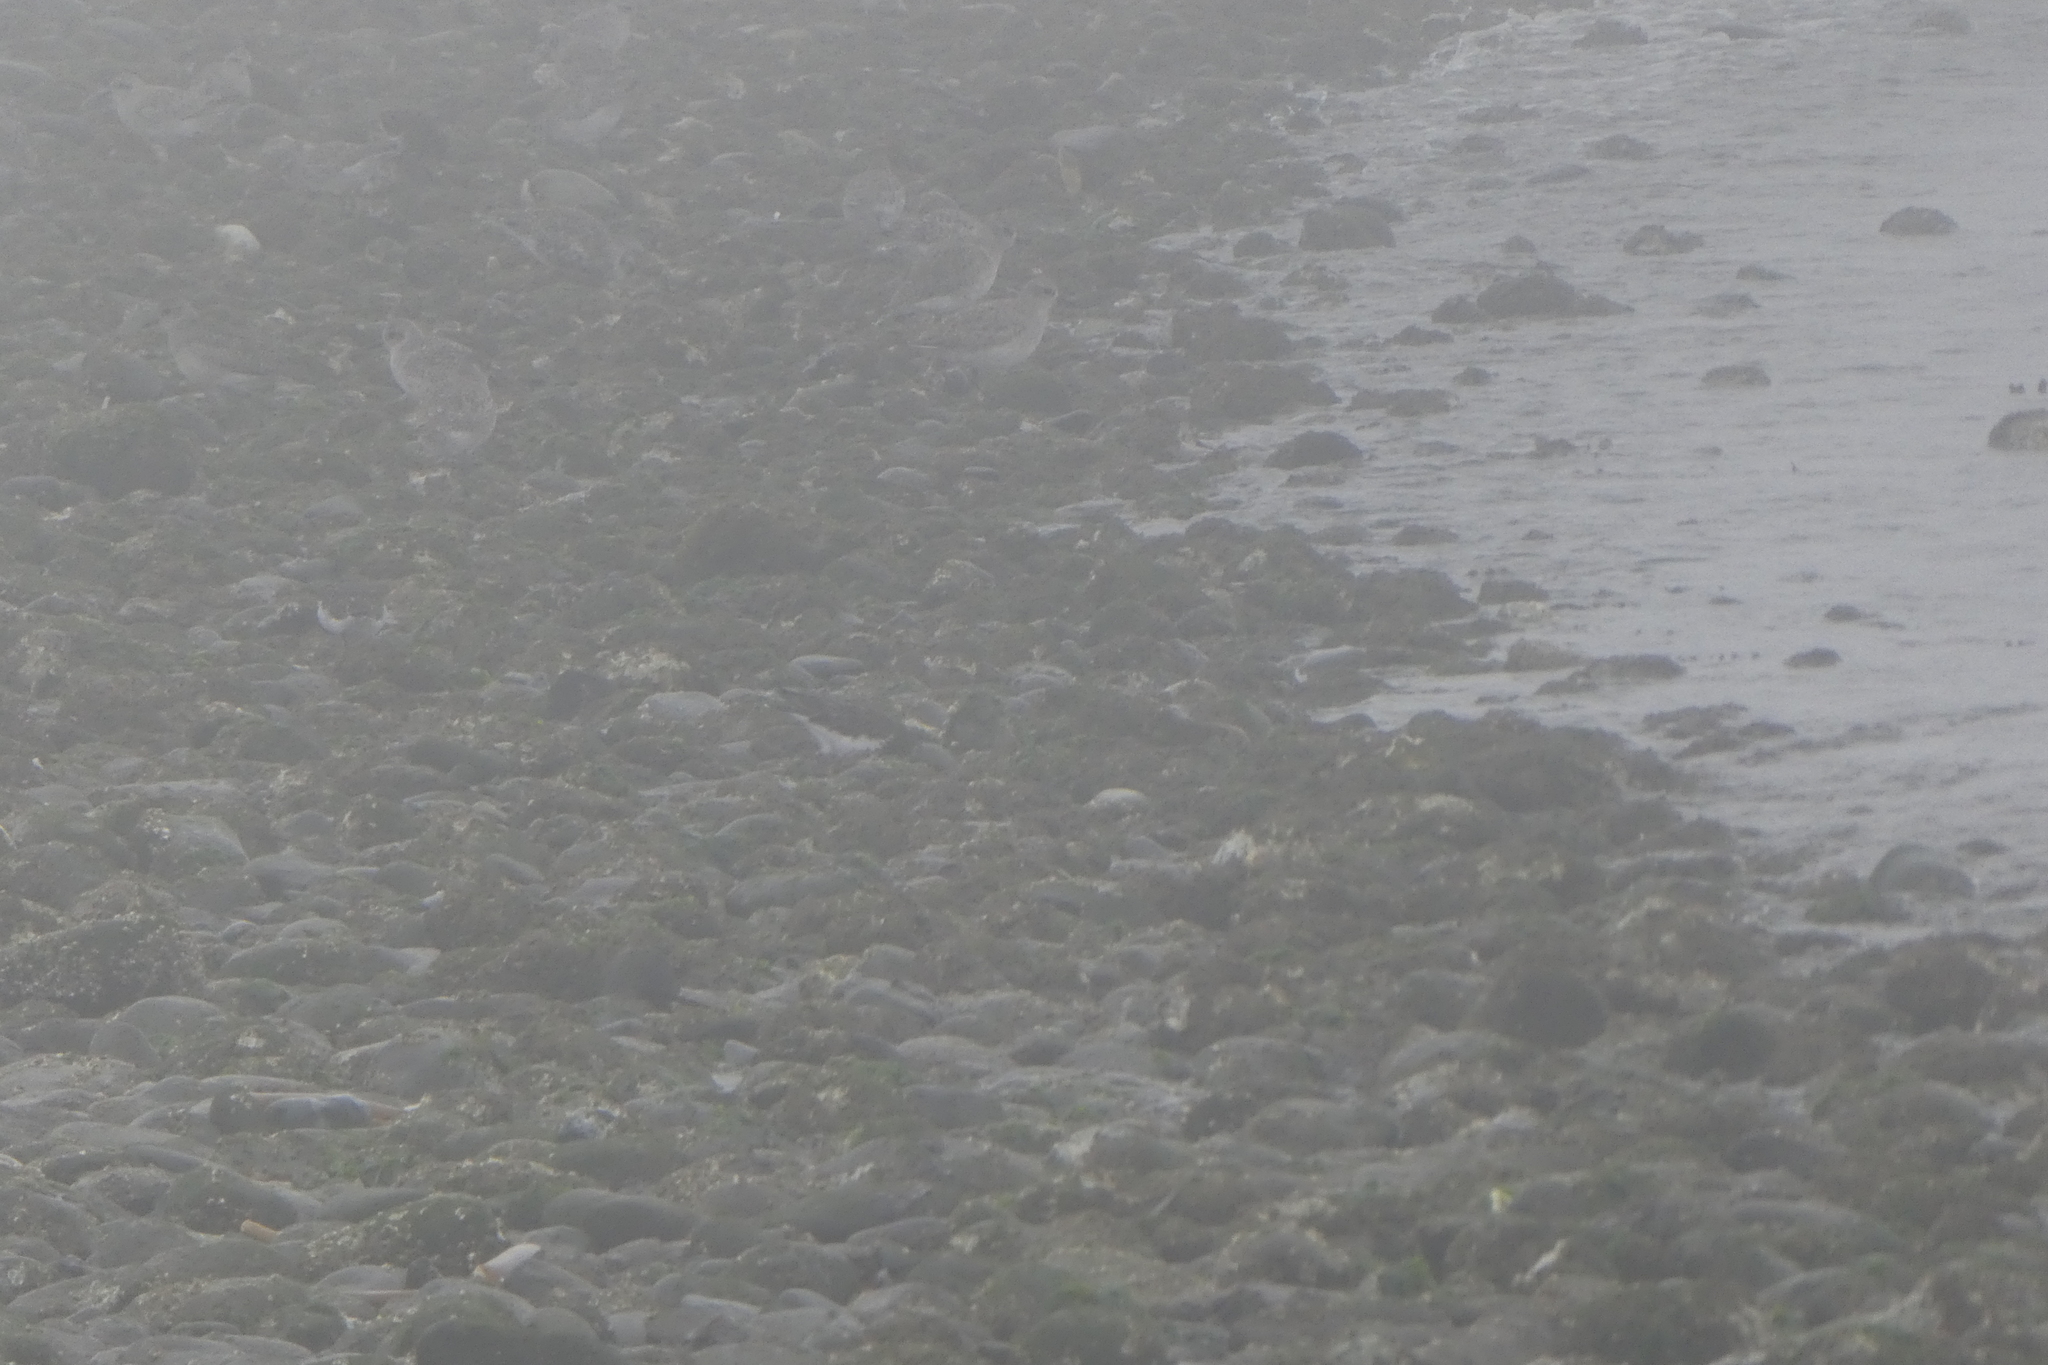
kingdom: Animalia
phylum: Chordata
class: Aves
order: Charadriiformes
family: Charadriidae
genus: Pluvialis
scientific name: Pluvialis squatarola
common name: Grey plover
